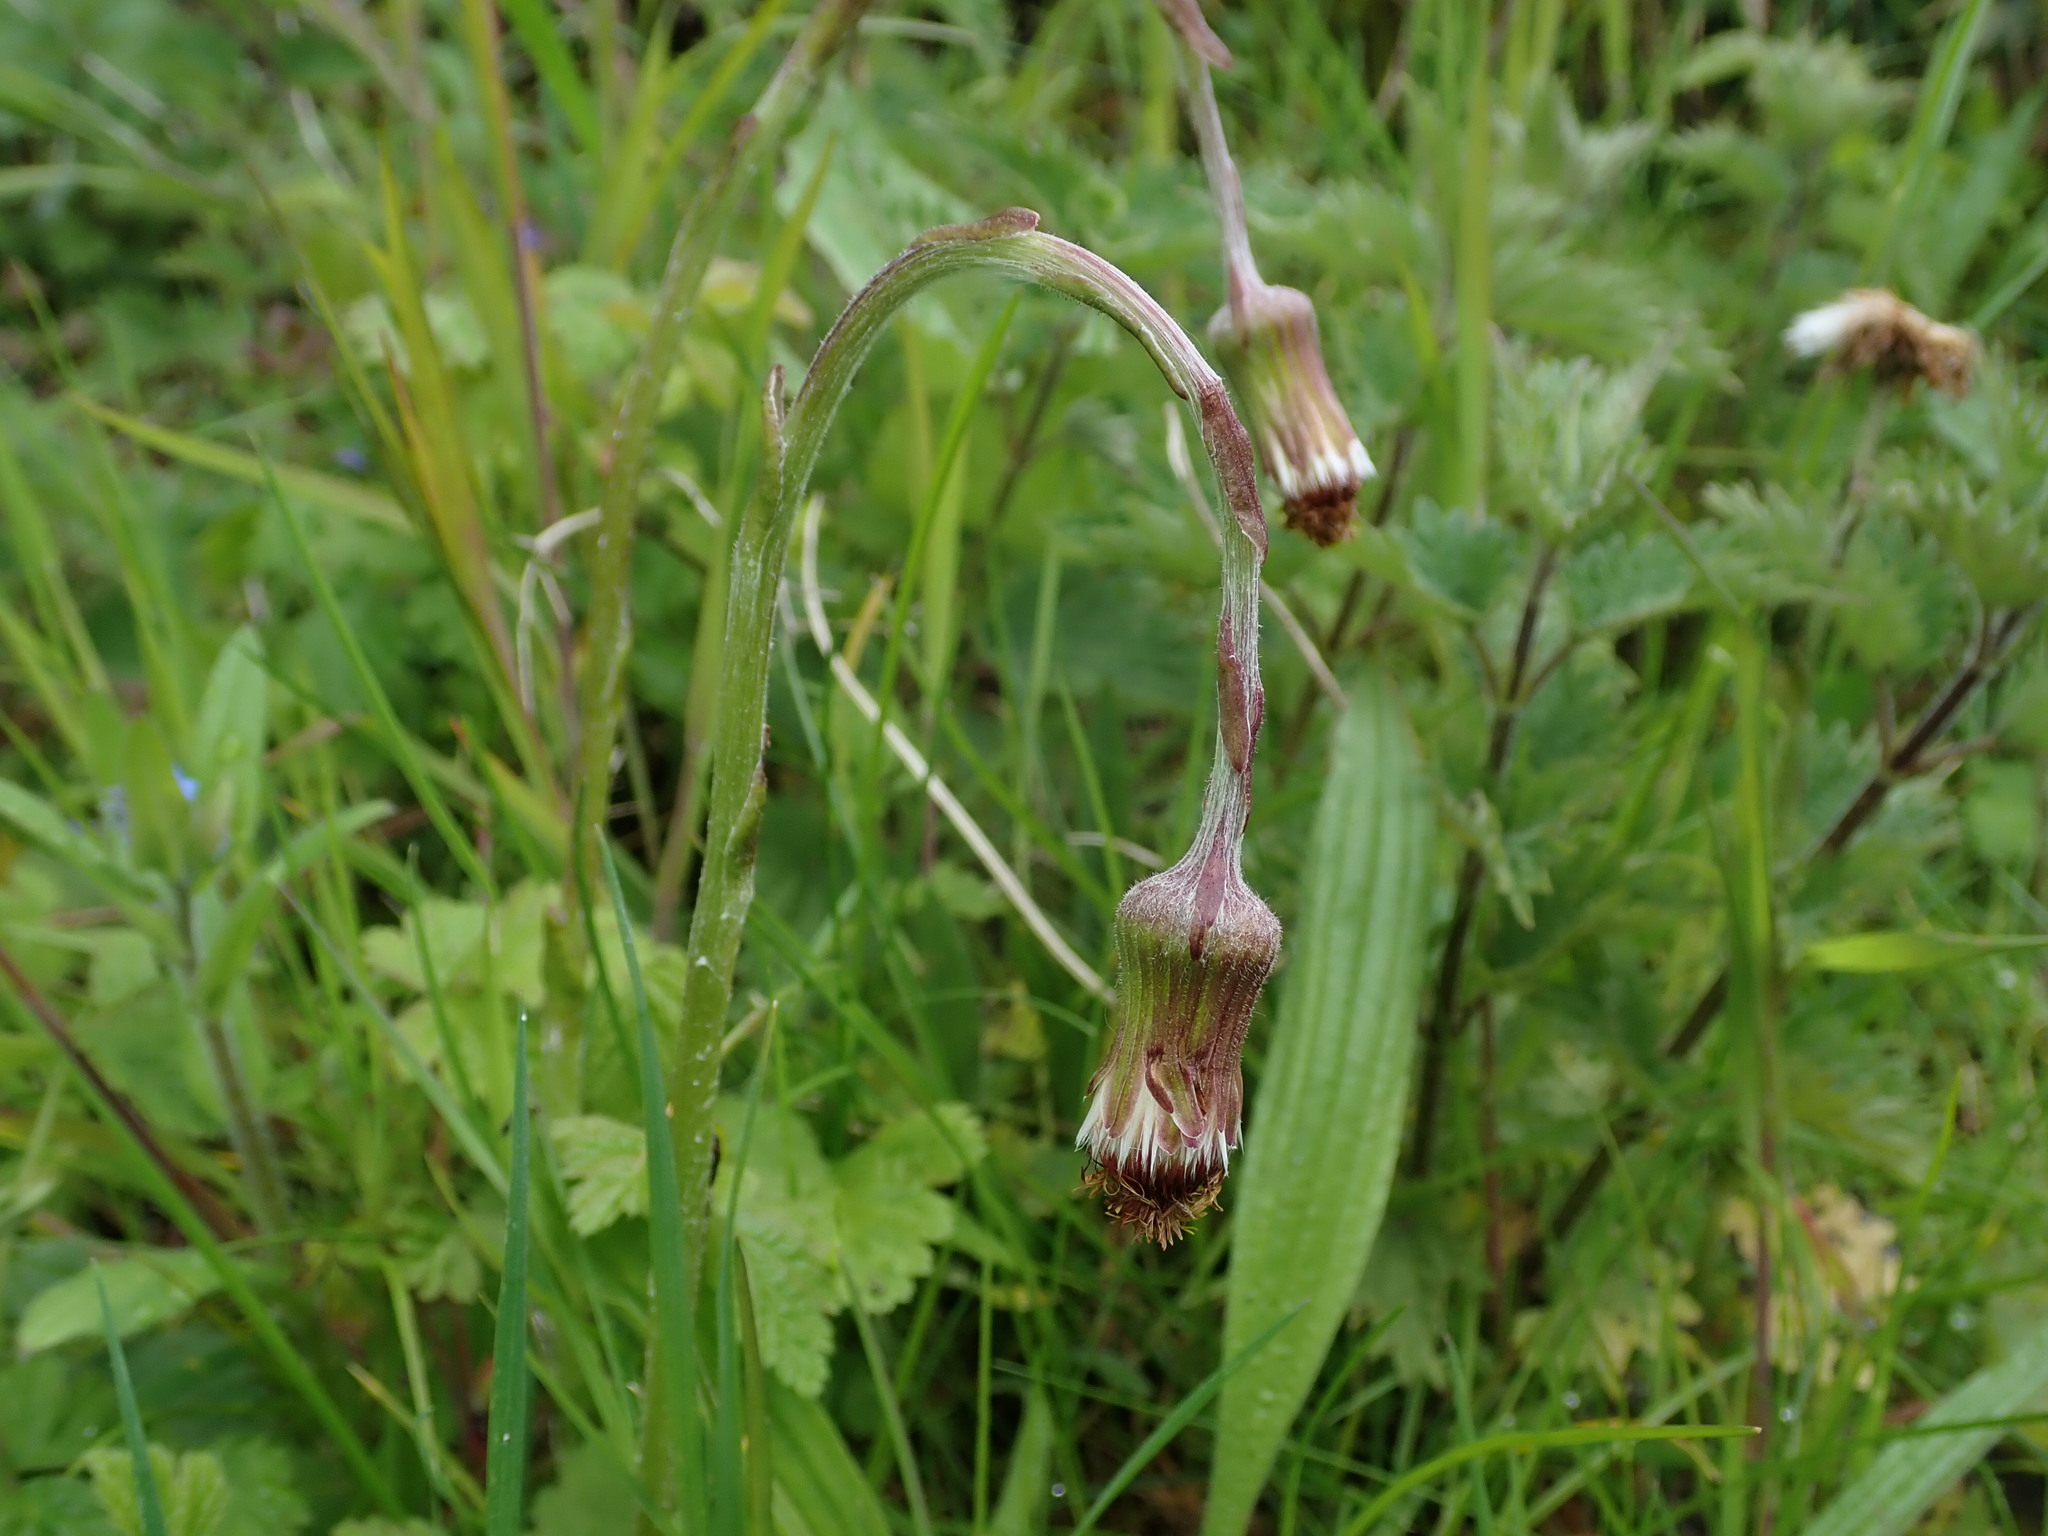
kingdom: Plantae
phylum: Tracheophyta
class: Magnoliopsida
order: Asterales
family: Asteraceae
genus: Tussilago
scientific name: Tussilago farfara
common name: Coltsfoot
